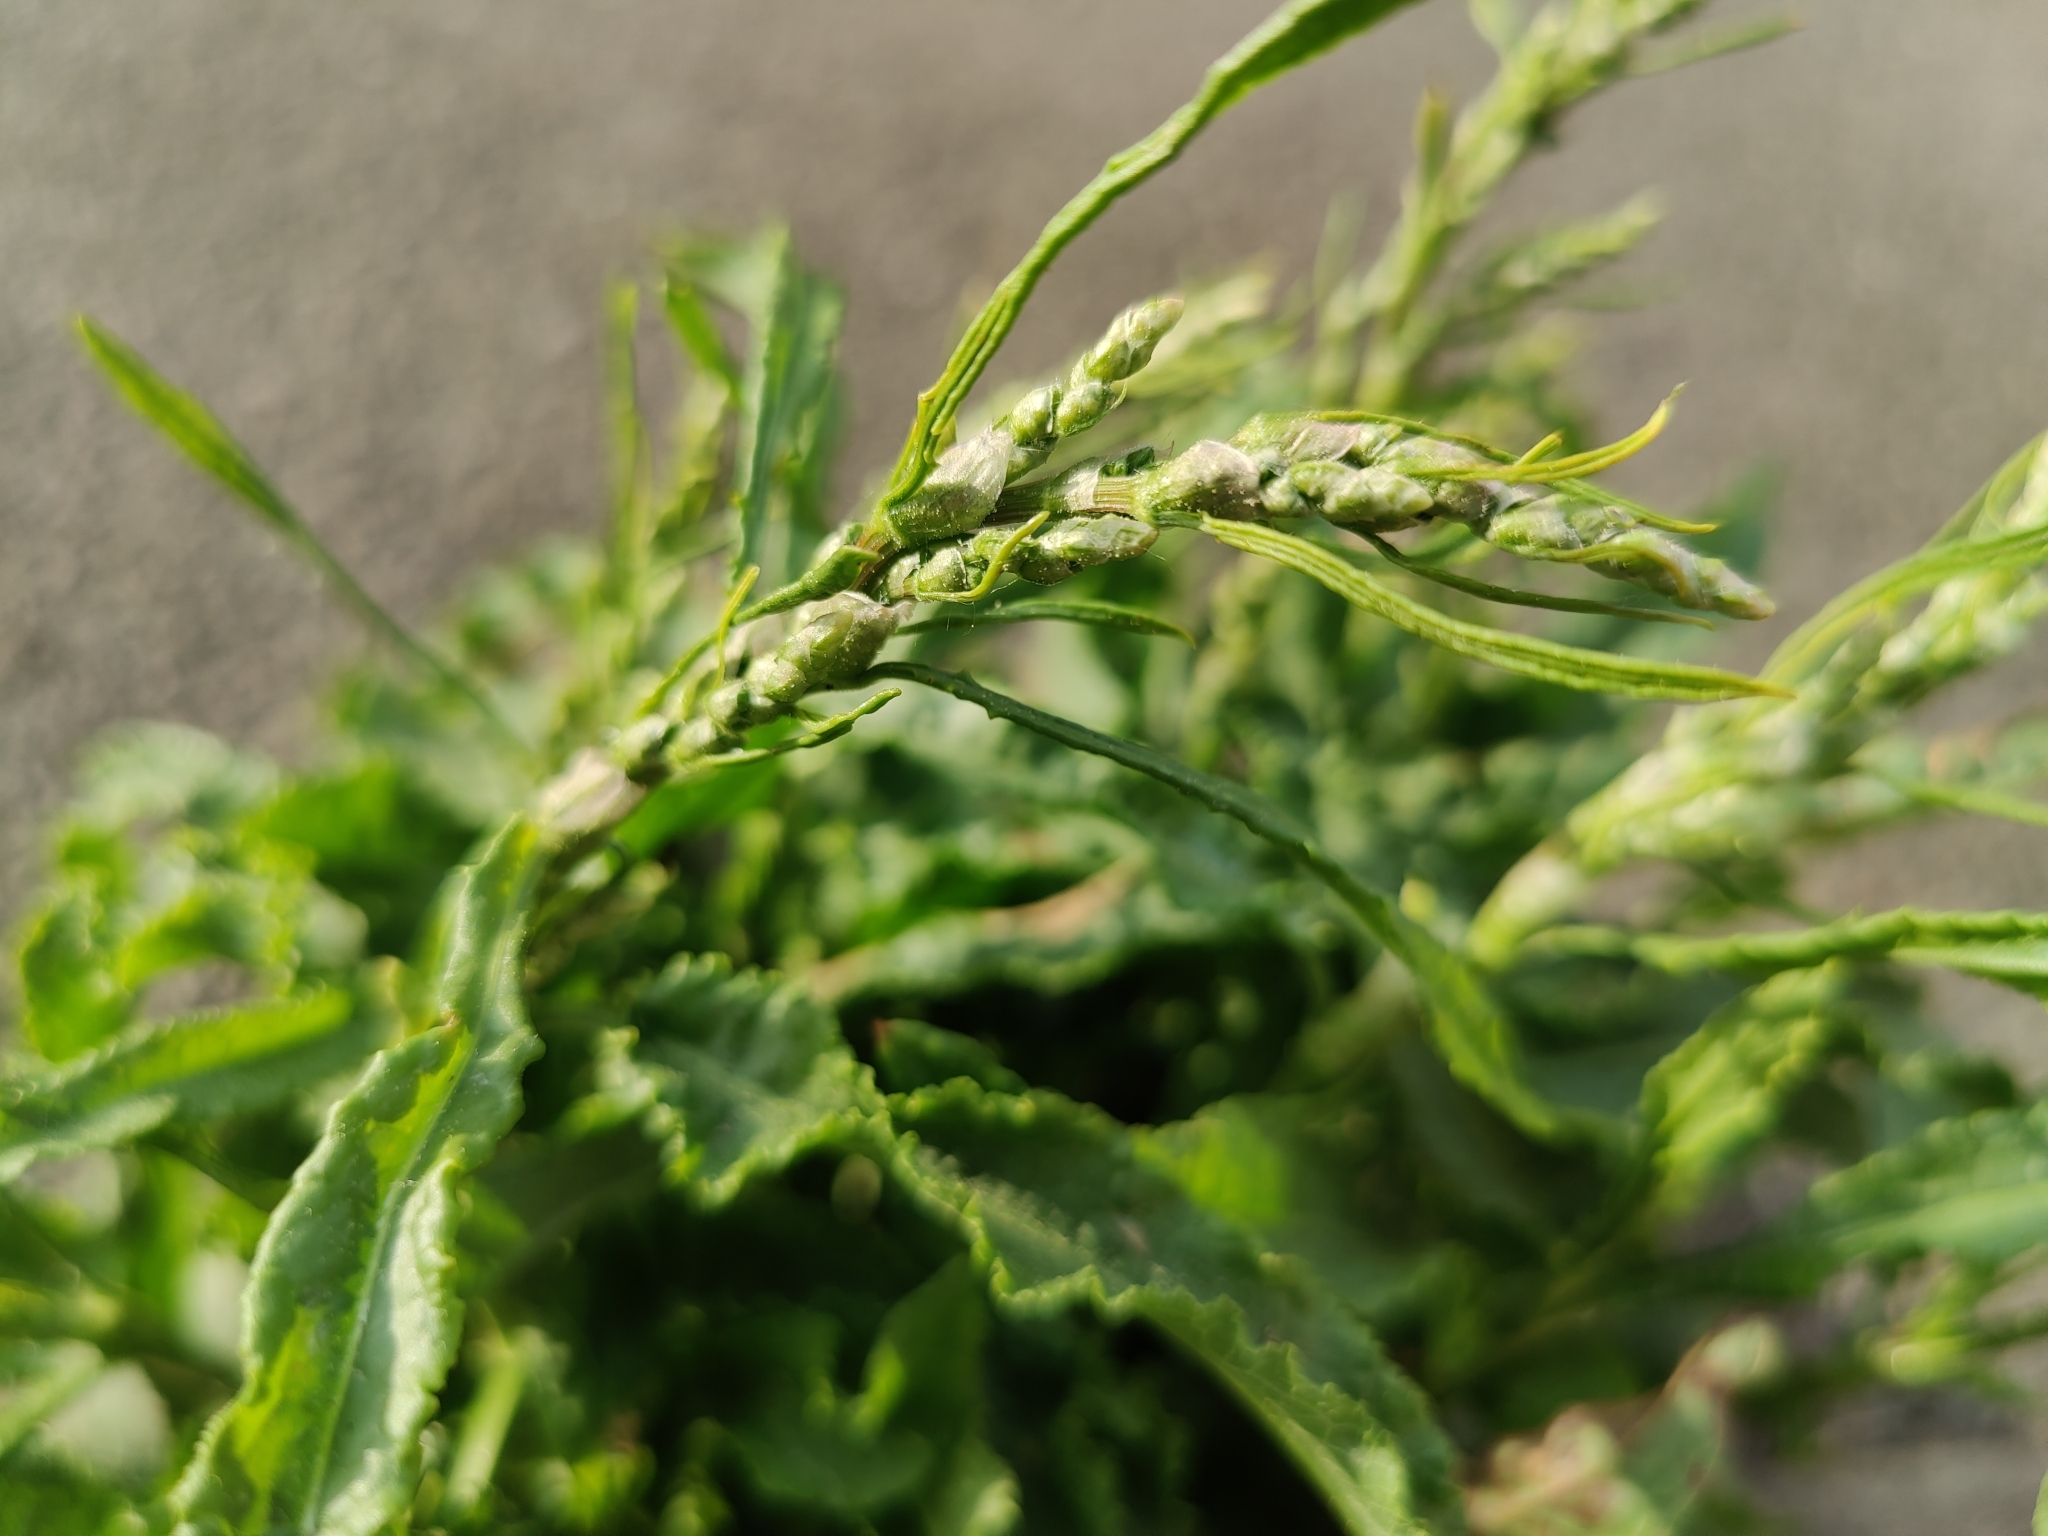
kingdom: Plantae
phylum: Tracheophyta
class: Magnoliopsida
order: Caryophyllales
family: Polygonaceae
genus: Rumex
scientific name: Rumex crispus
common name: Curled dock
